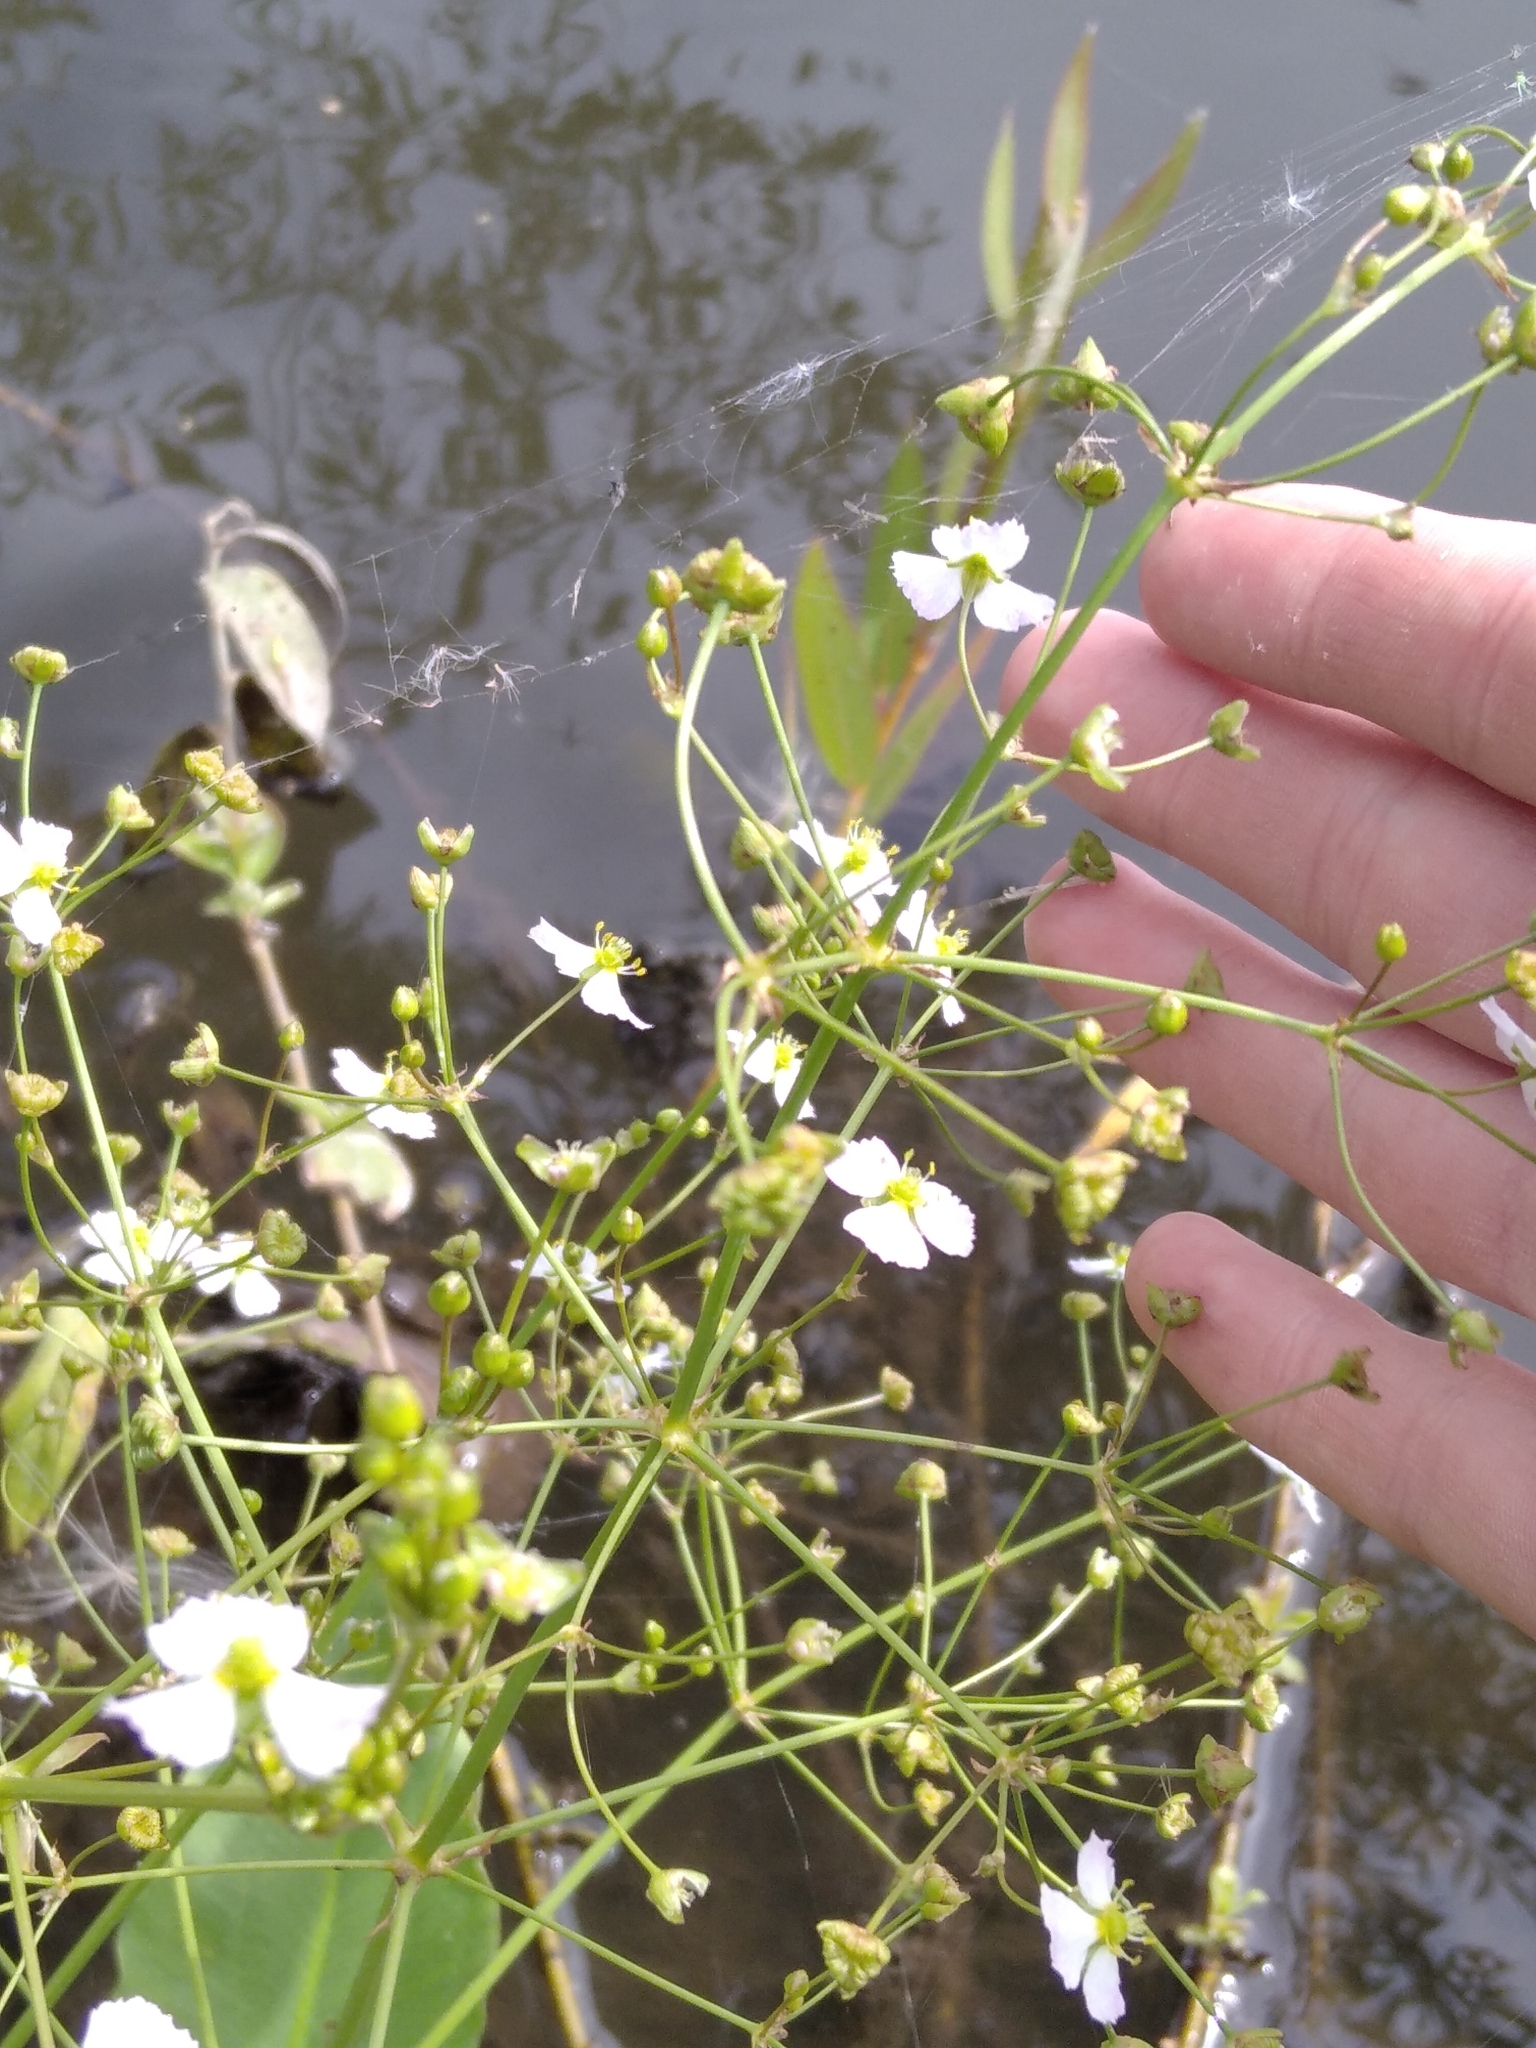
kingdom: Plantae
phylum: Tracheophyta
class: Liliopsida
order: Alismatales
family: Alismataceae
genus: Alisma
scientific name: Alisma plantago-aquatica
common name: Water-plantain
